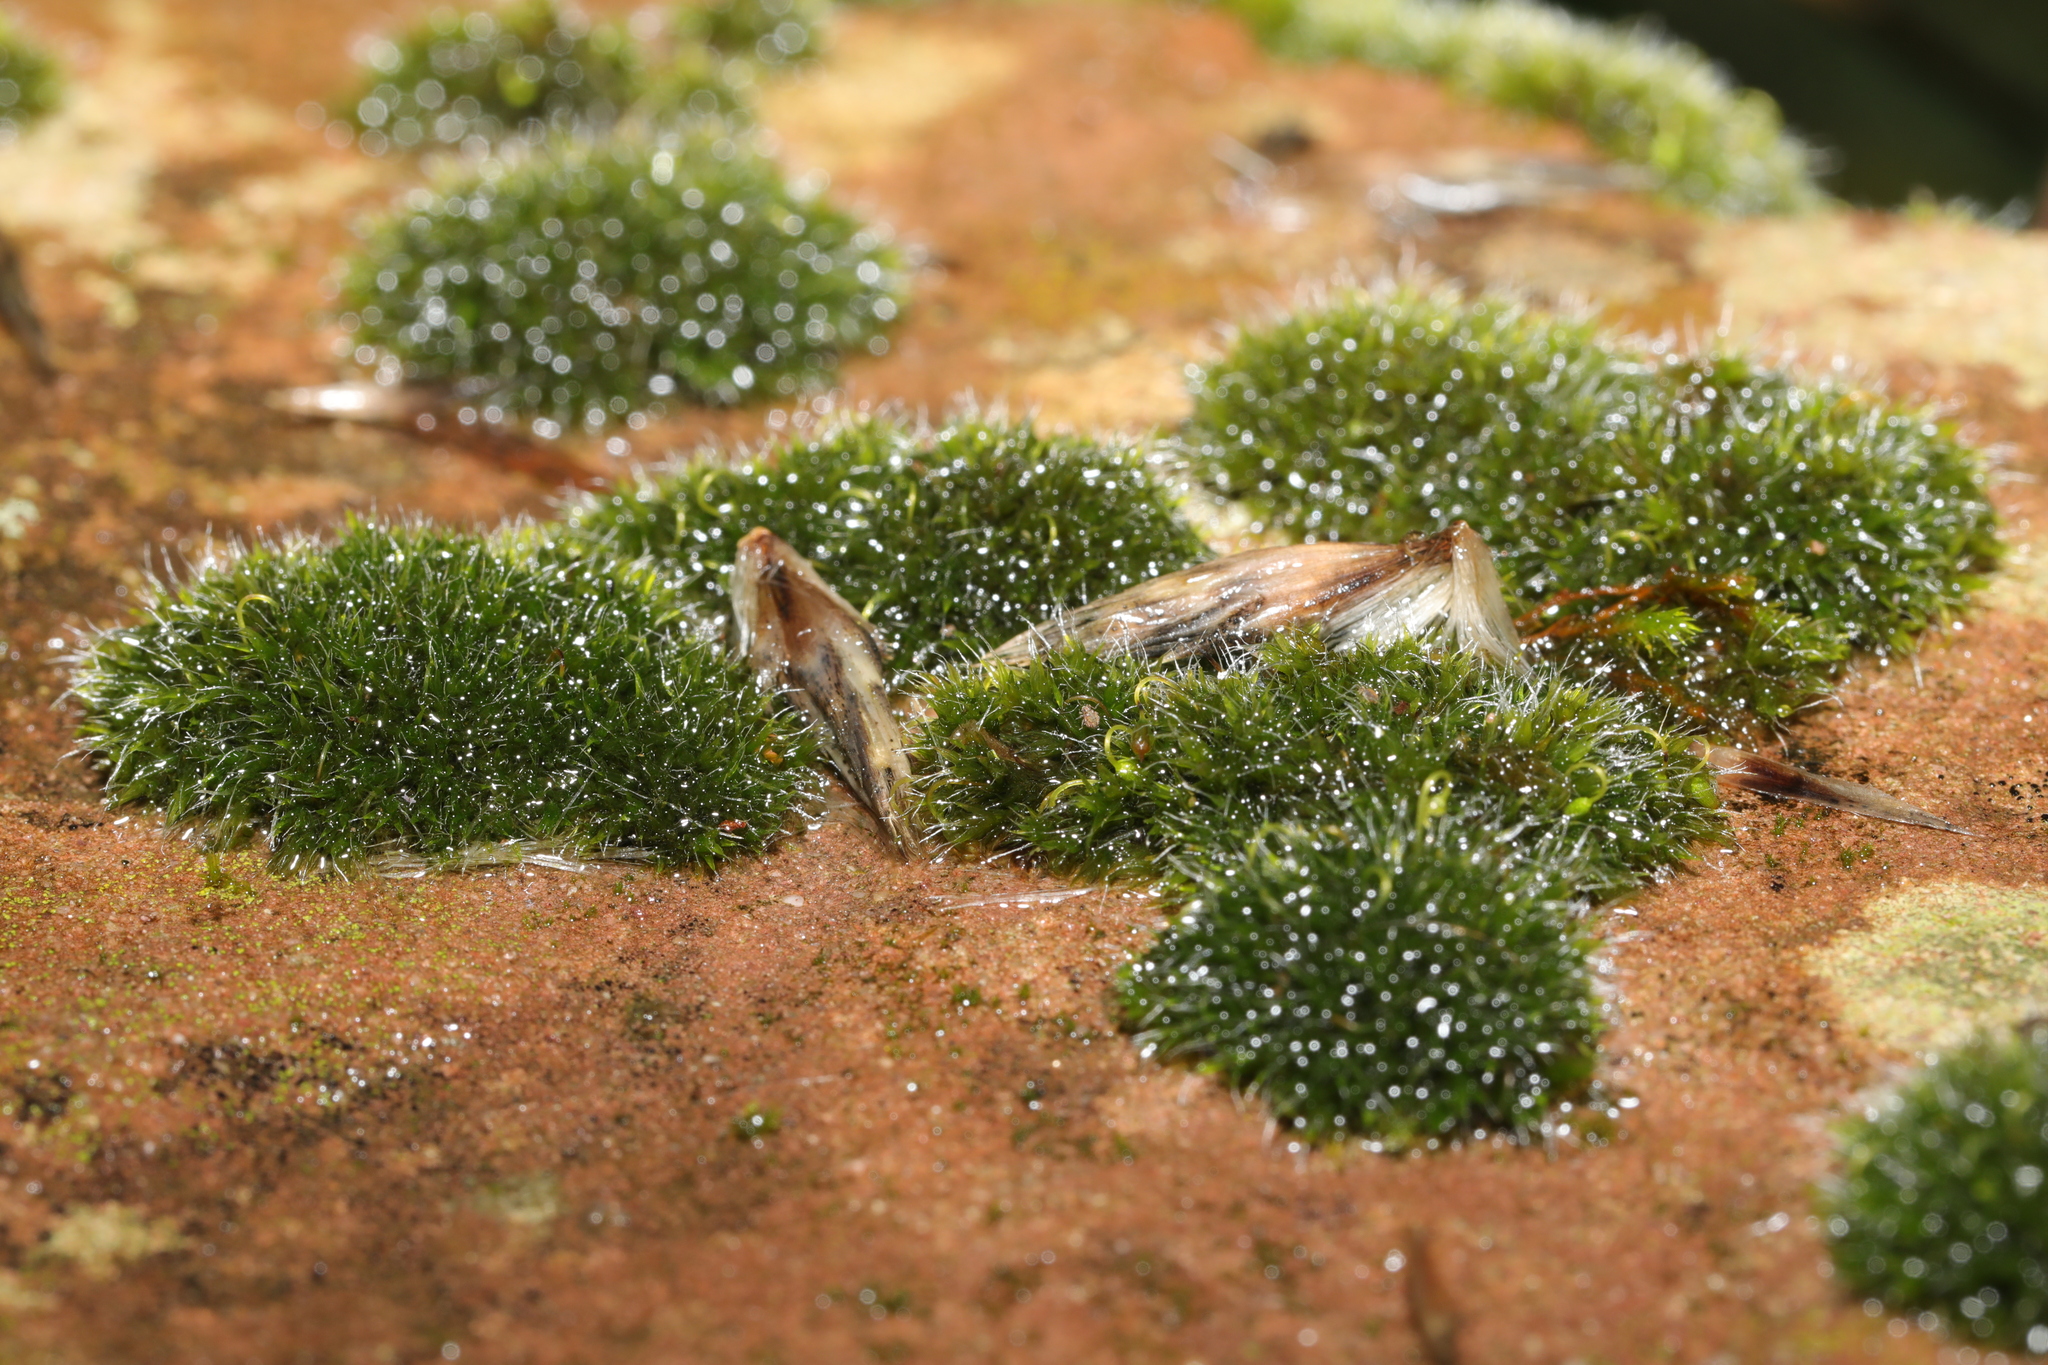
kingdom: Plantae
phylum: Bryophyta
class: Bryopsida
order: Grimmiales
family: Grimmiaceae
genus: Grimmia
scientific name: Grimmia pulvinata
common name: Grey-cushioned grimmia
